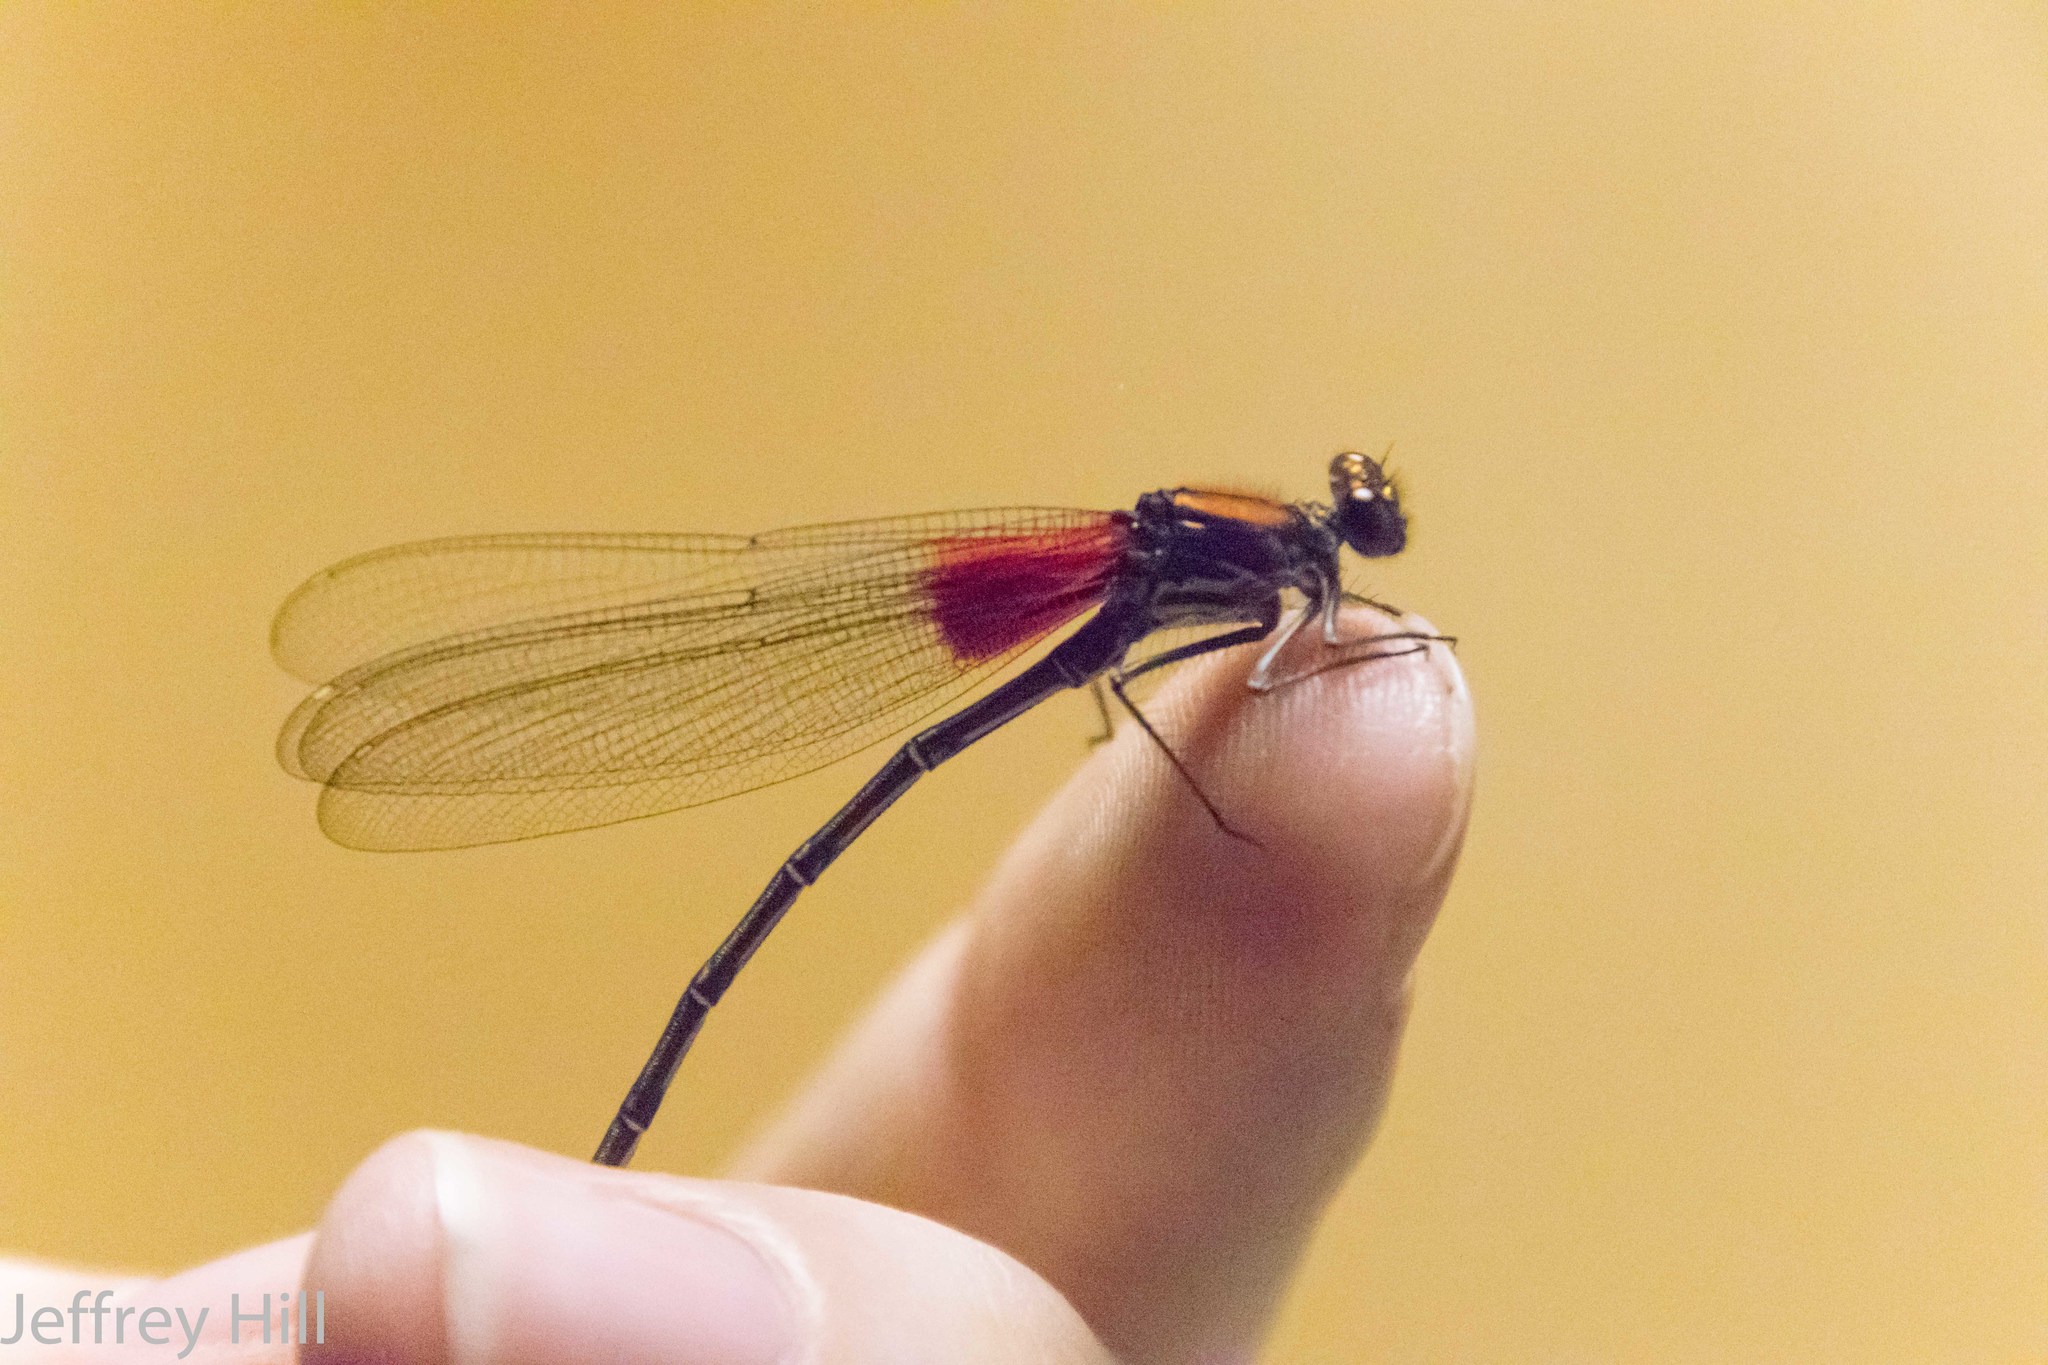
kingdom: Animalia
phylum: Arthropoda
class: Insecta
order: Odonata
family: Calopterygidae
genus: Hetaerina
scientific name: Hetaerina americana
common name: American rubyspot
